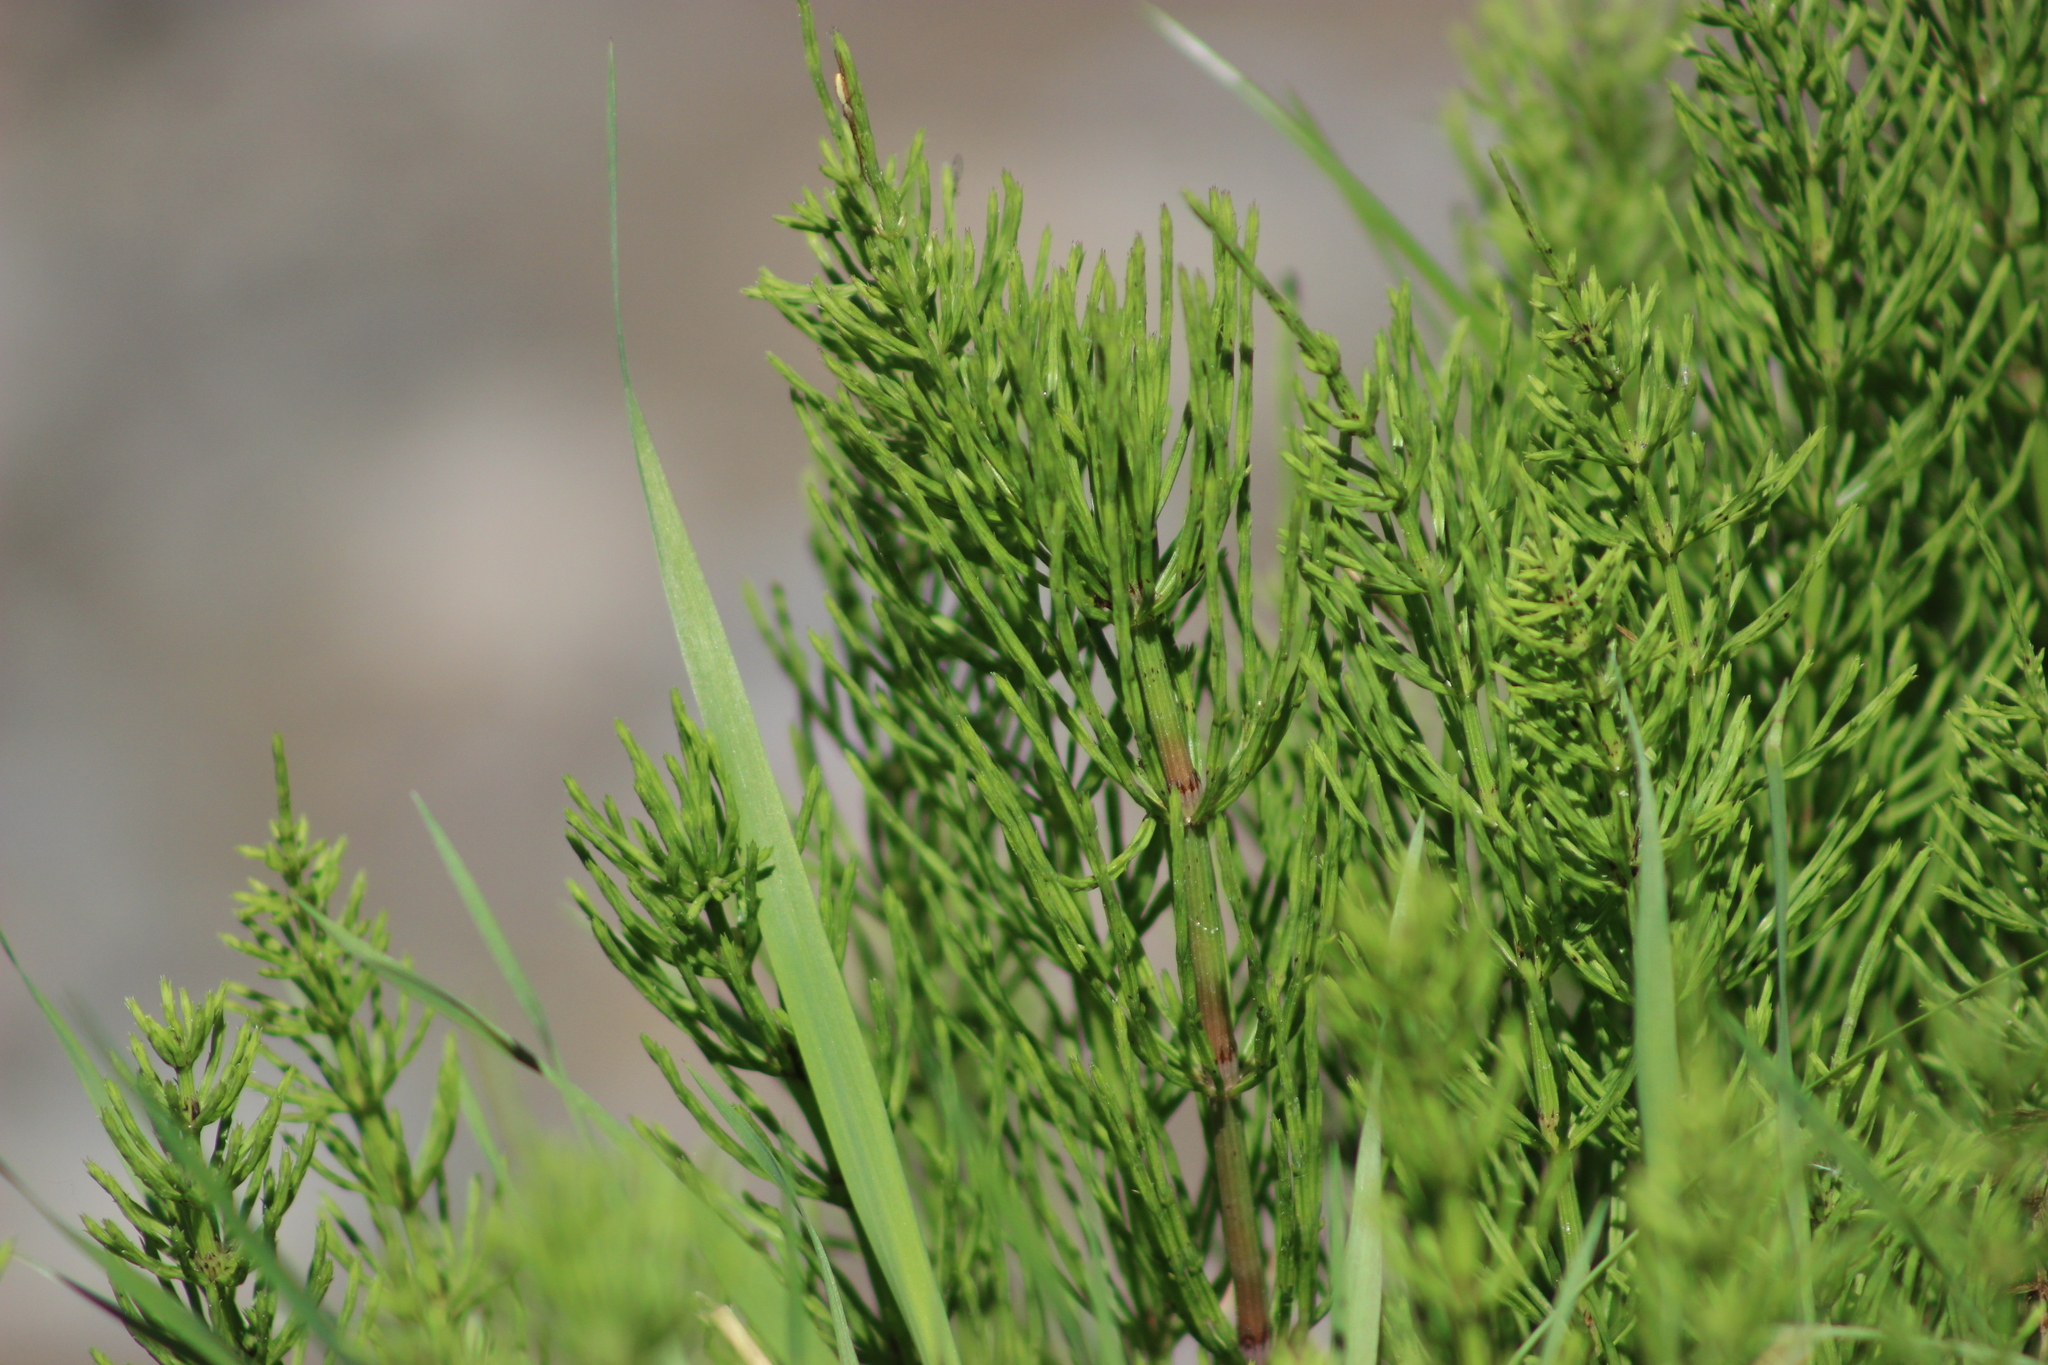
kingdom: Plantae
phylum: Tracheophyta
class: Polypodiopsida
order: Equisetales
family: Equisetaceae
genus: Equisetum
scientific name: Equisetum arvense
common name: Field horsetail
